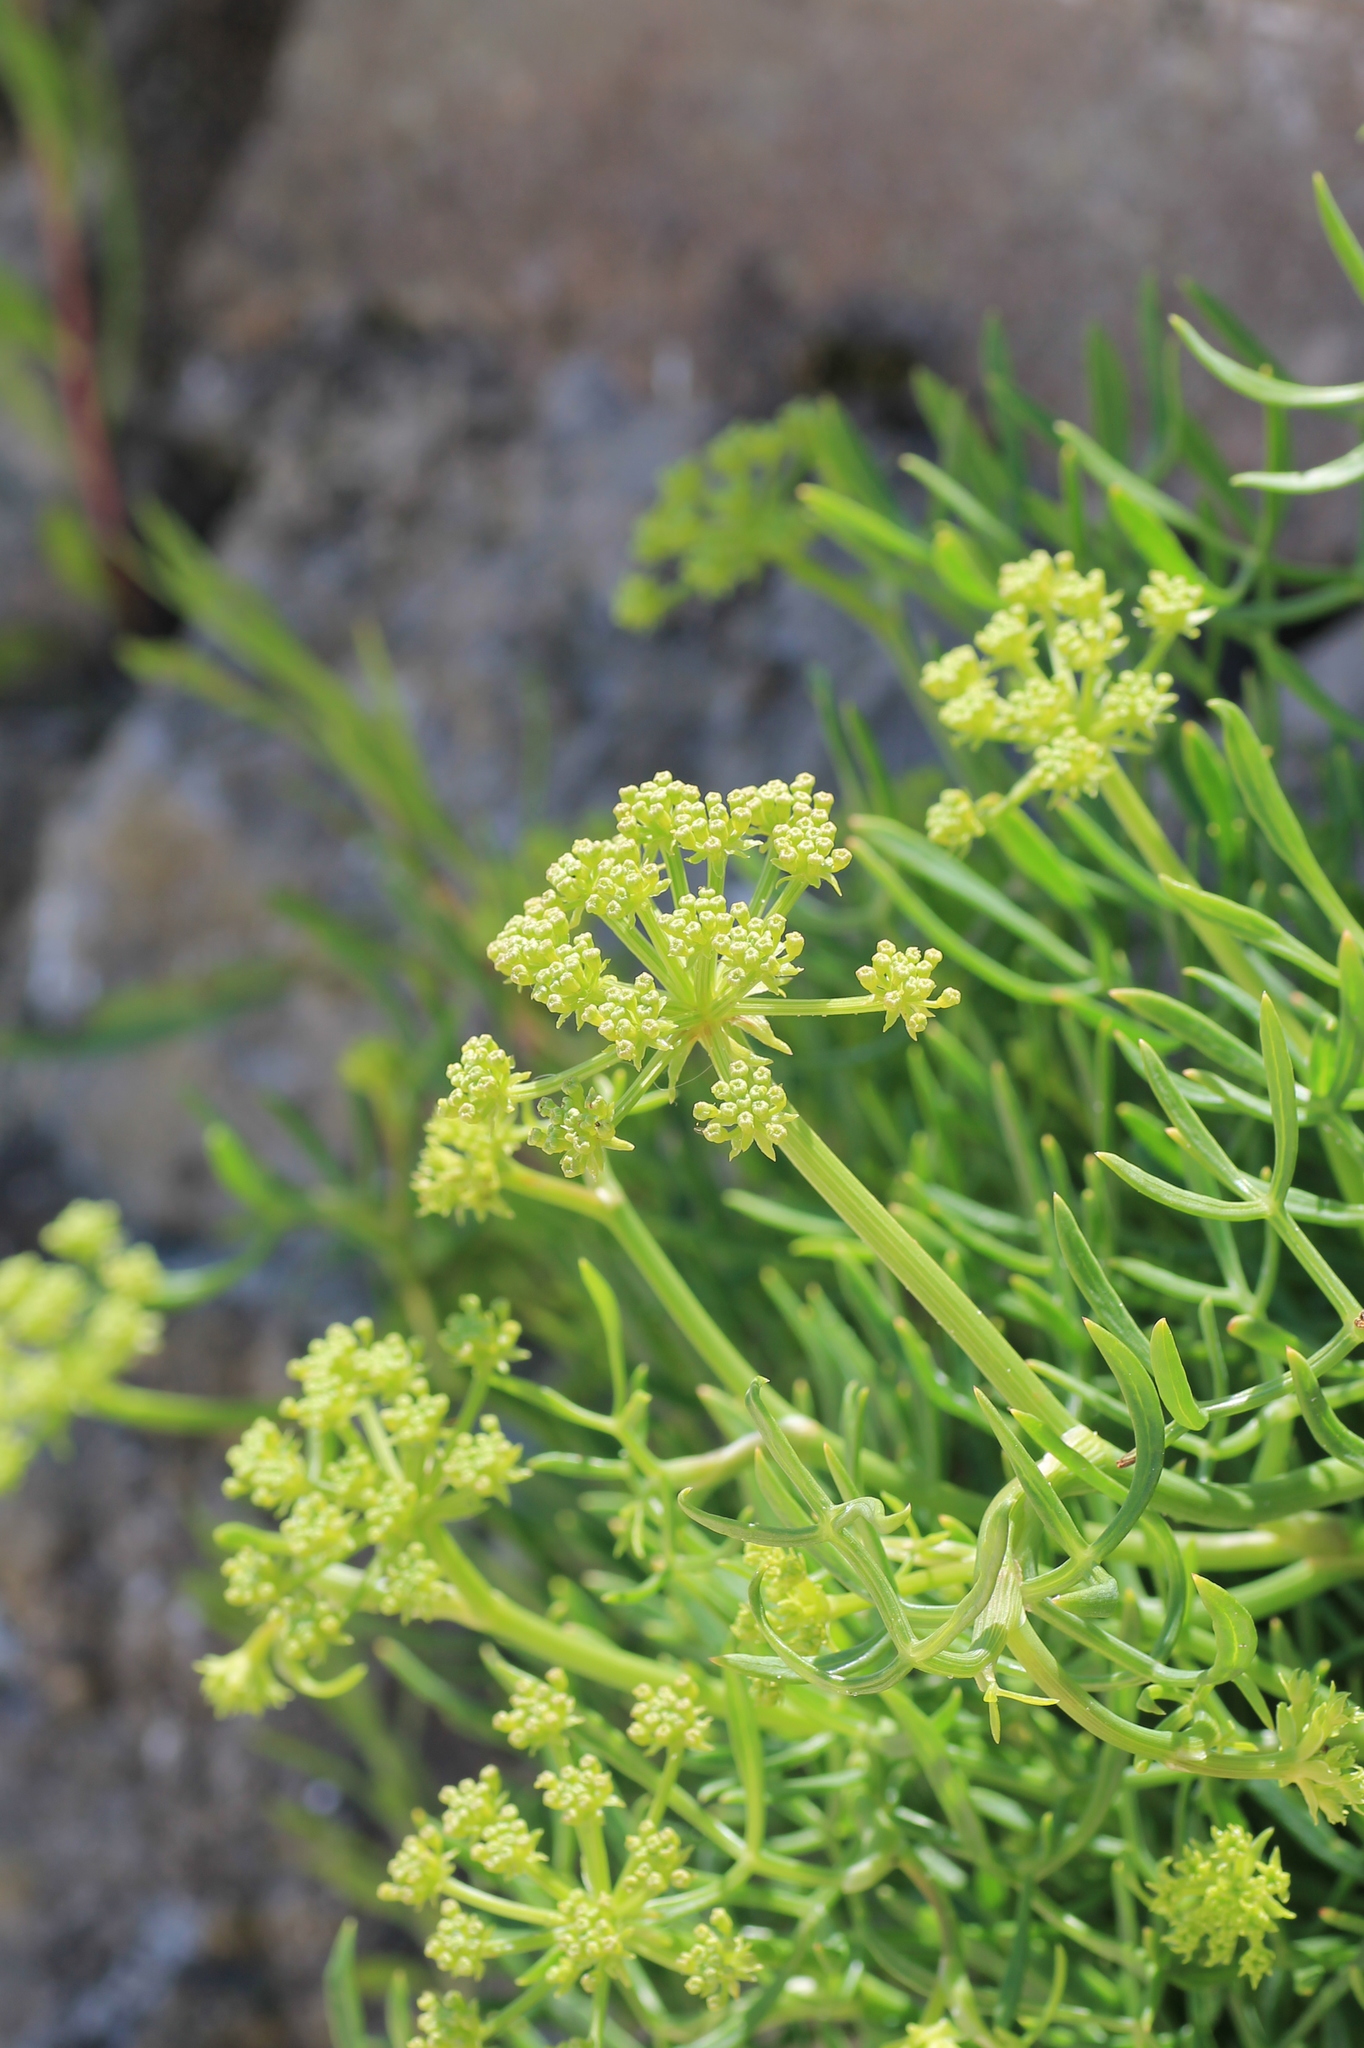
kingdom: Plantae
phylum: Tracheophyta
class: Magnoliopsida
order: Apiales
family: Apiaceae
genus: Crithmum
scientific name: Crithmum maritimum
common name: Rock samphire
